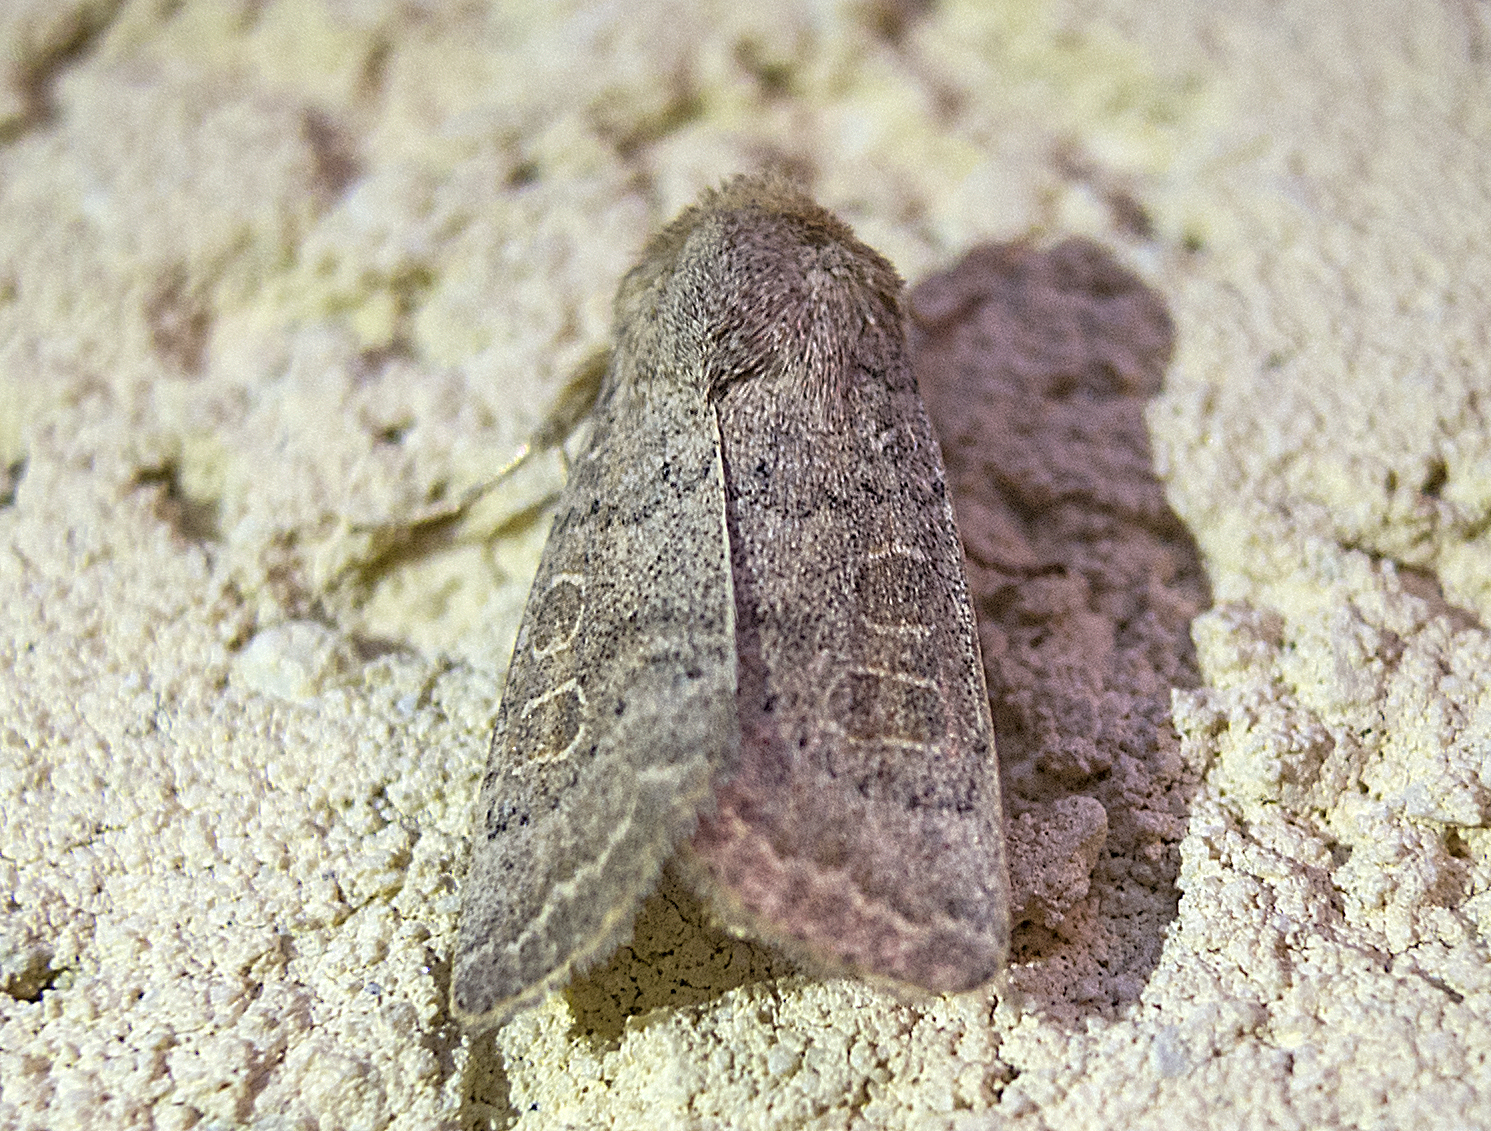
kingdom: Animalia
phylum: Arthropoda
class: Insecta
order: Lepidoptera
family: Noctuidae
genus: Hoplodrina
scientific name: Hoplodrina ambigua
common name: Vine's rustic
